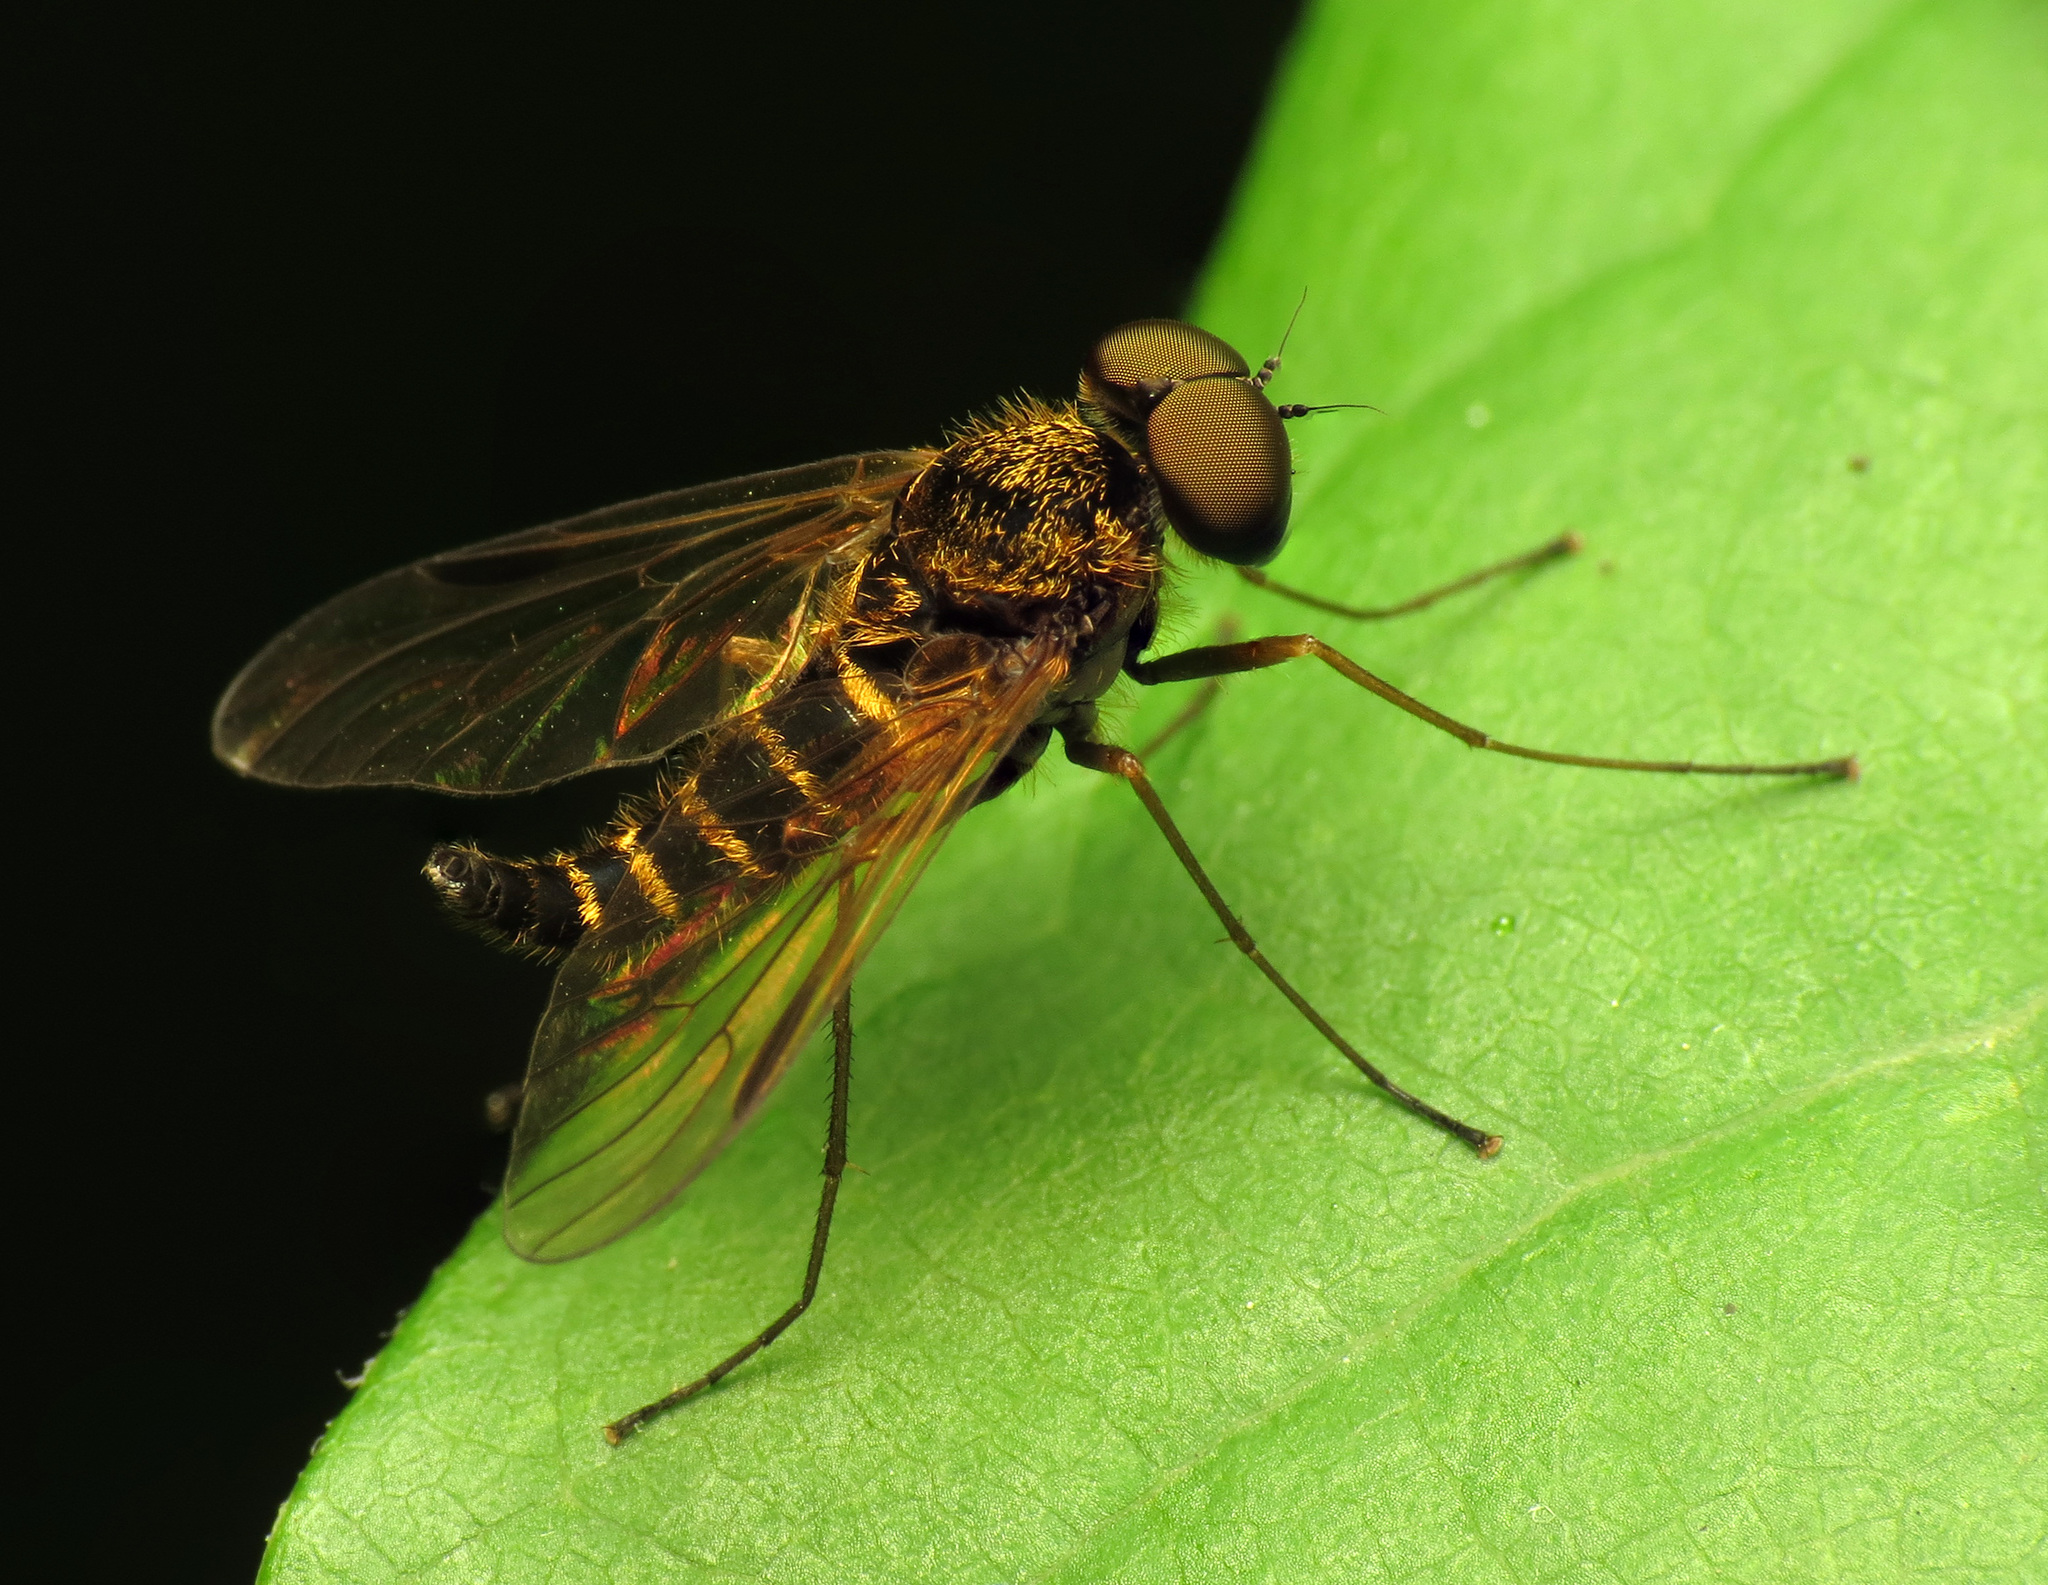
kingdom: Animalia
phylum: Arthropoda
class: Insecta
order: Diptera
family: Rhagionidae
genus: Chrysopilus
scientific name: Chrysopilus fasciatus
